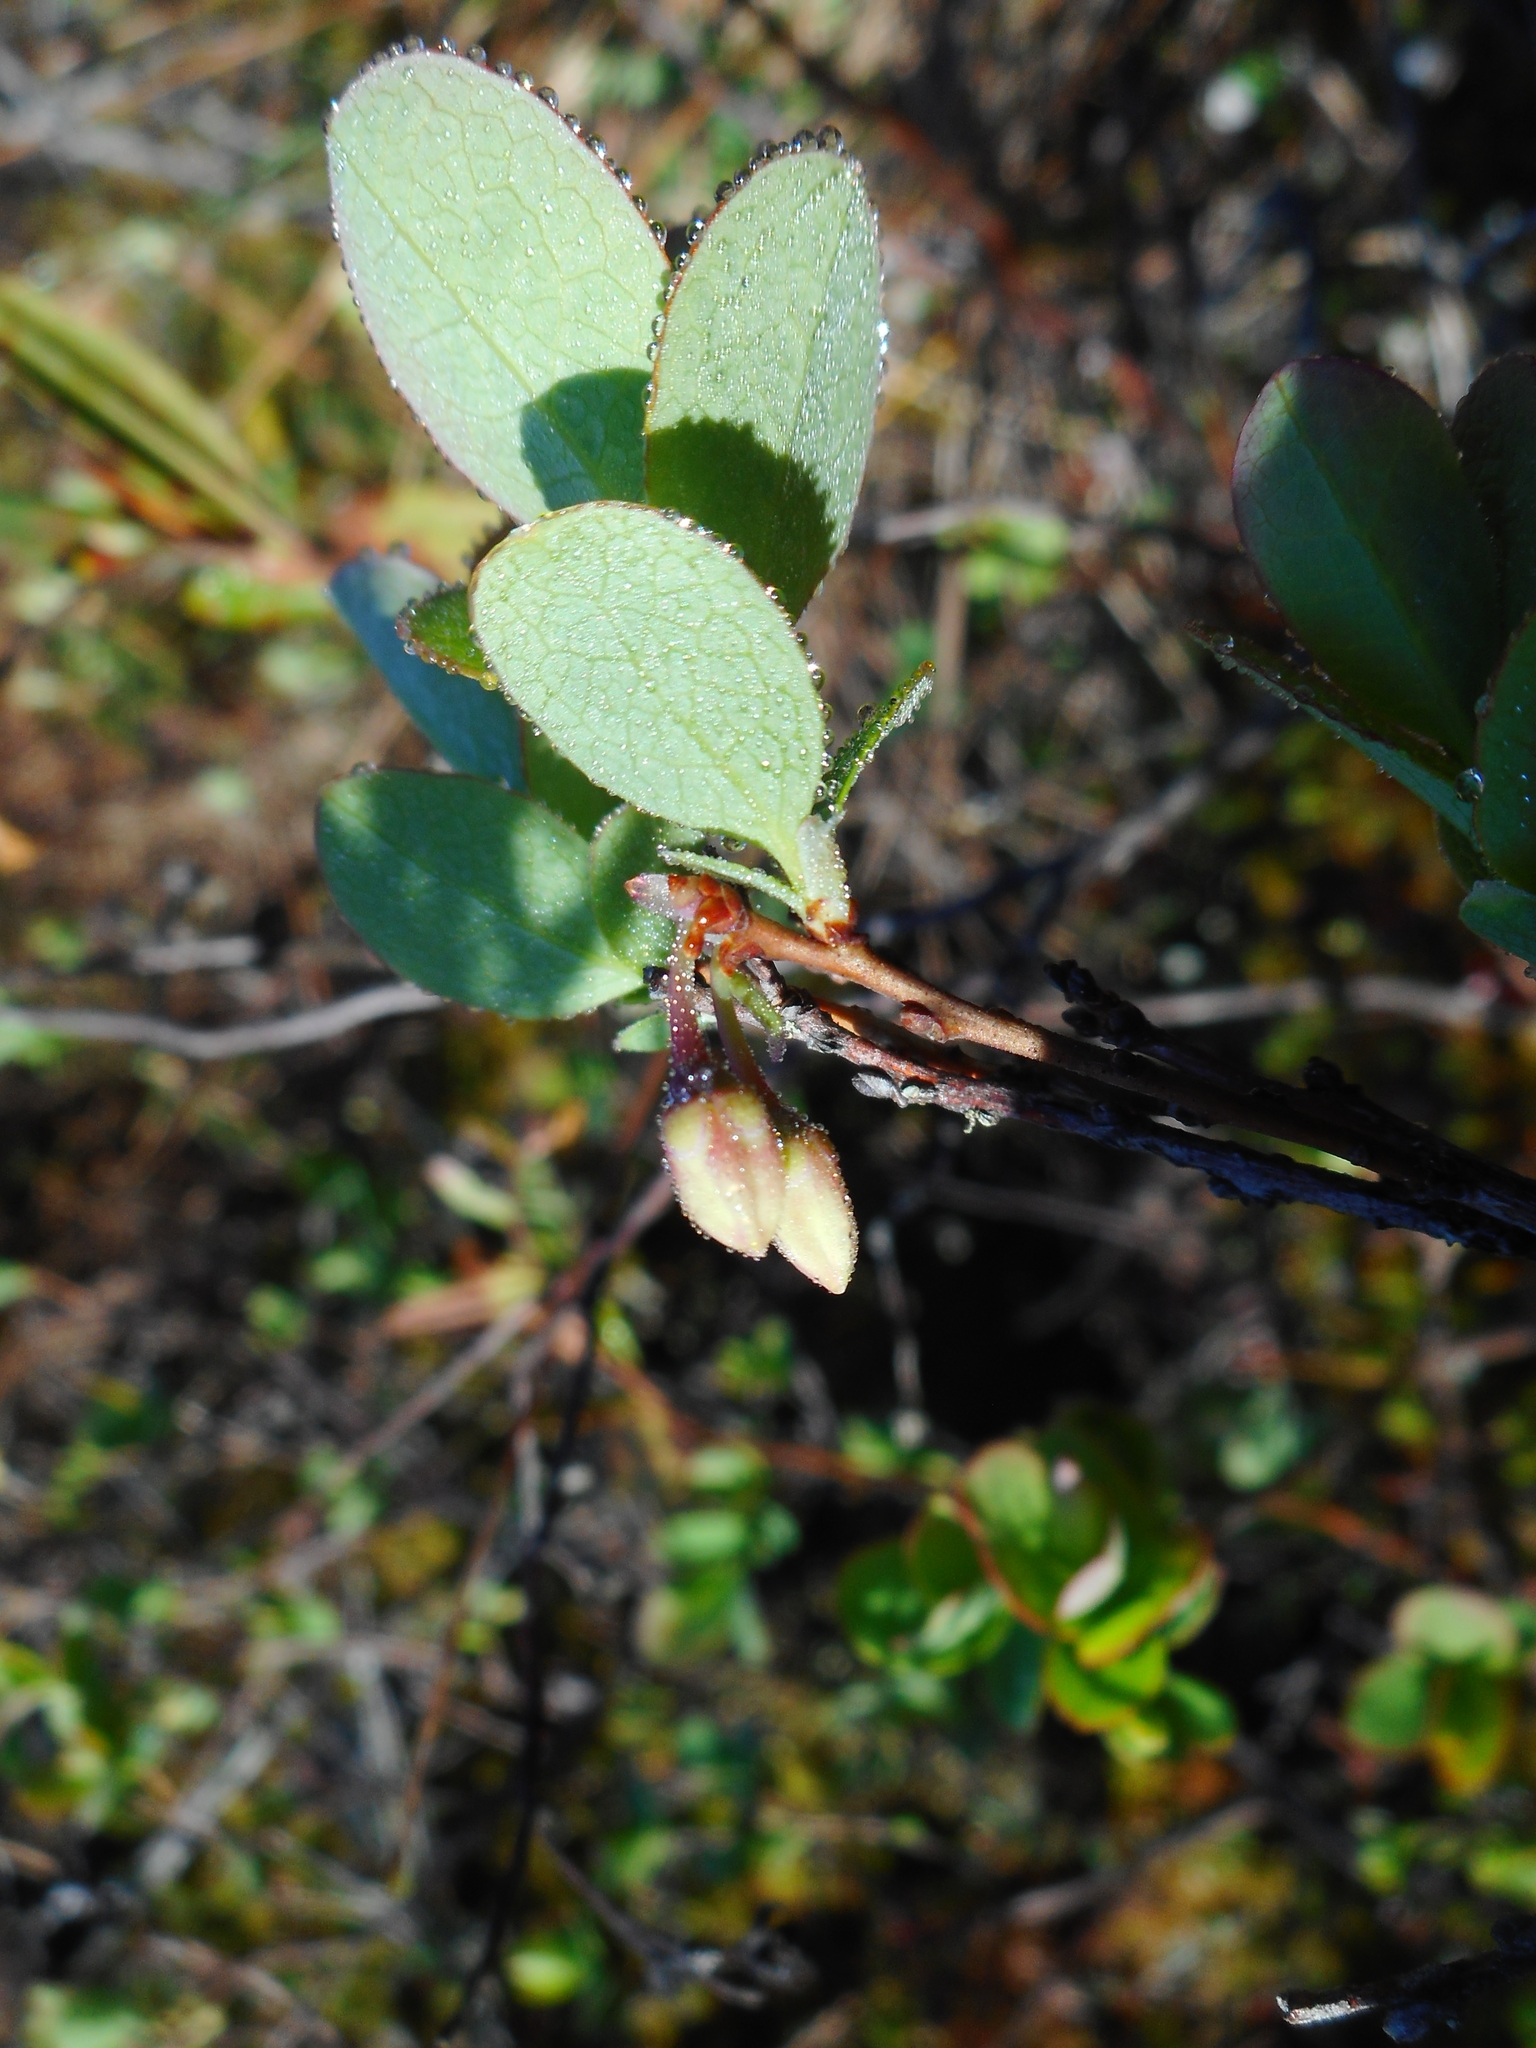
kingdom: Plantae
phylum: Tracheophyta
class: Magnoliopsida
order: Ericales
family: Ericaceae
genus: Vaccinium
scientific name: Vaccinium uliginosum
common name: Bog bilberry
